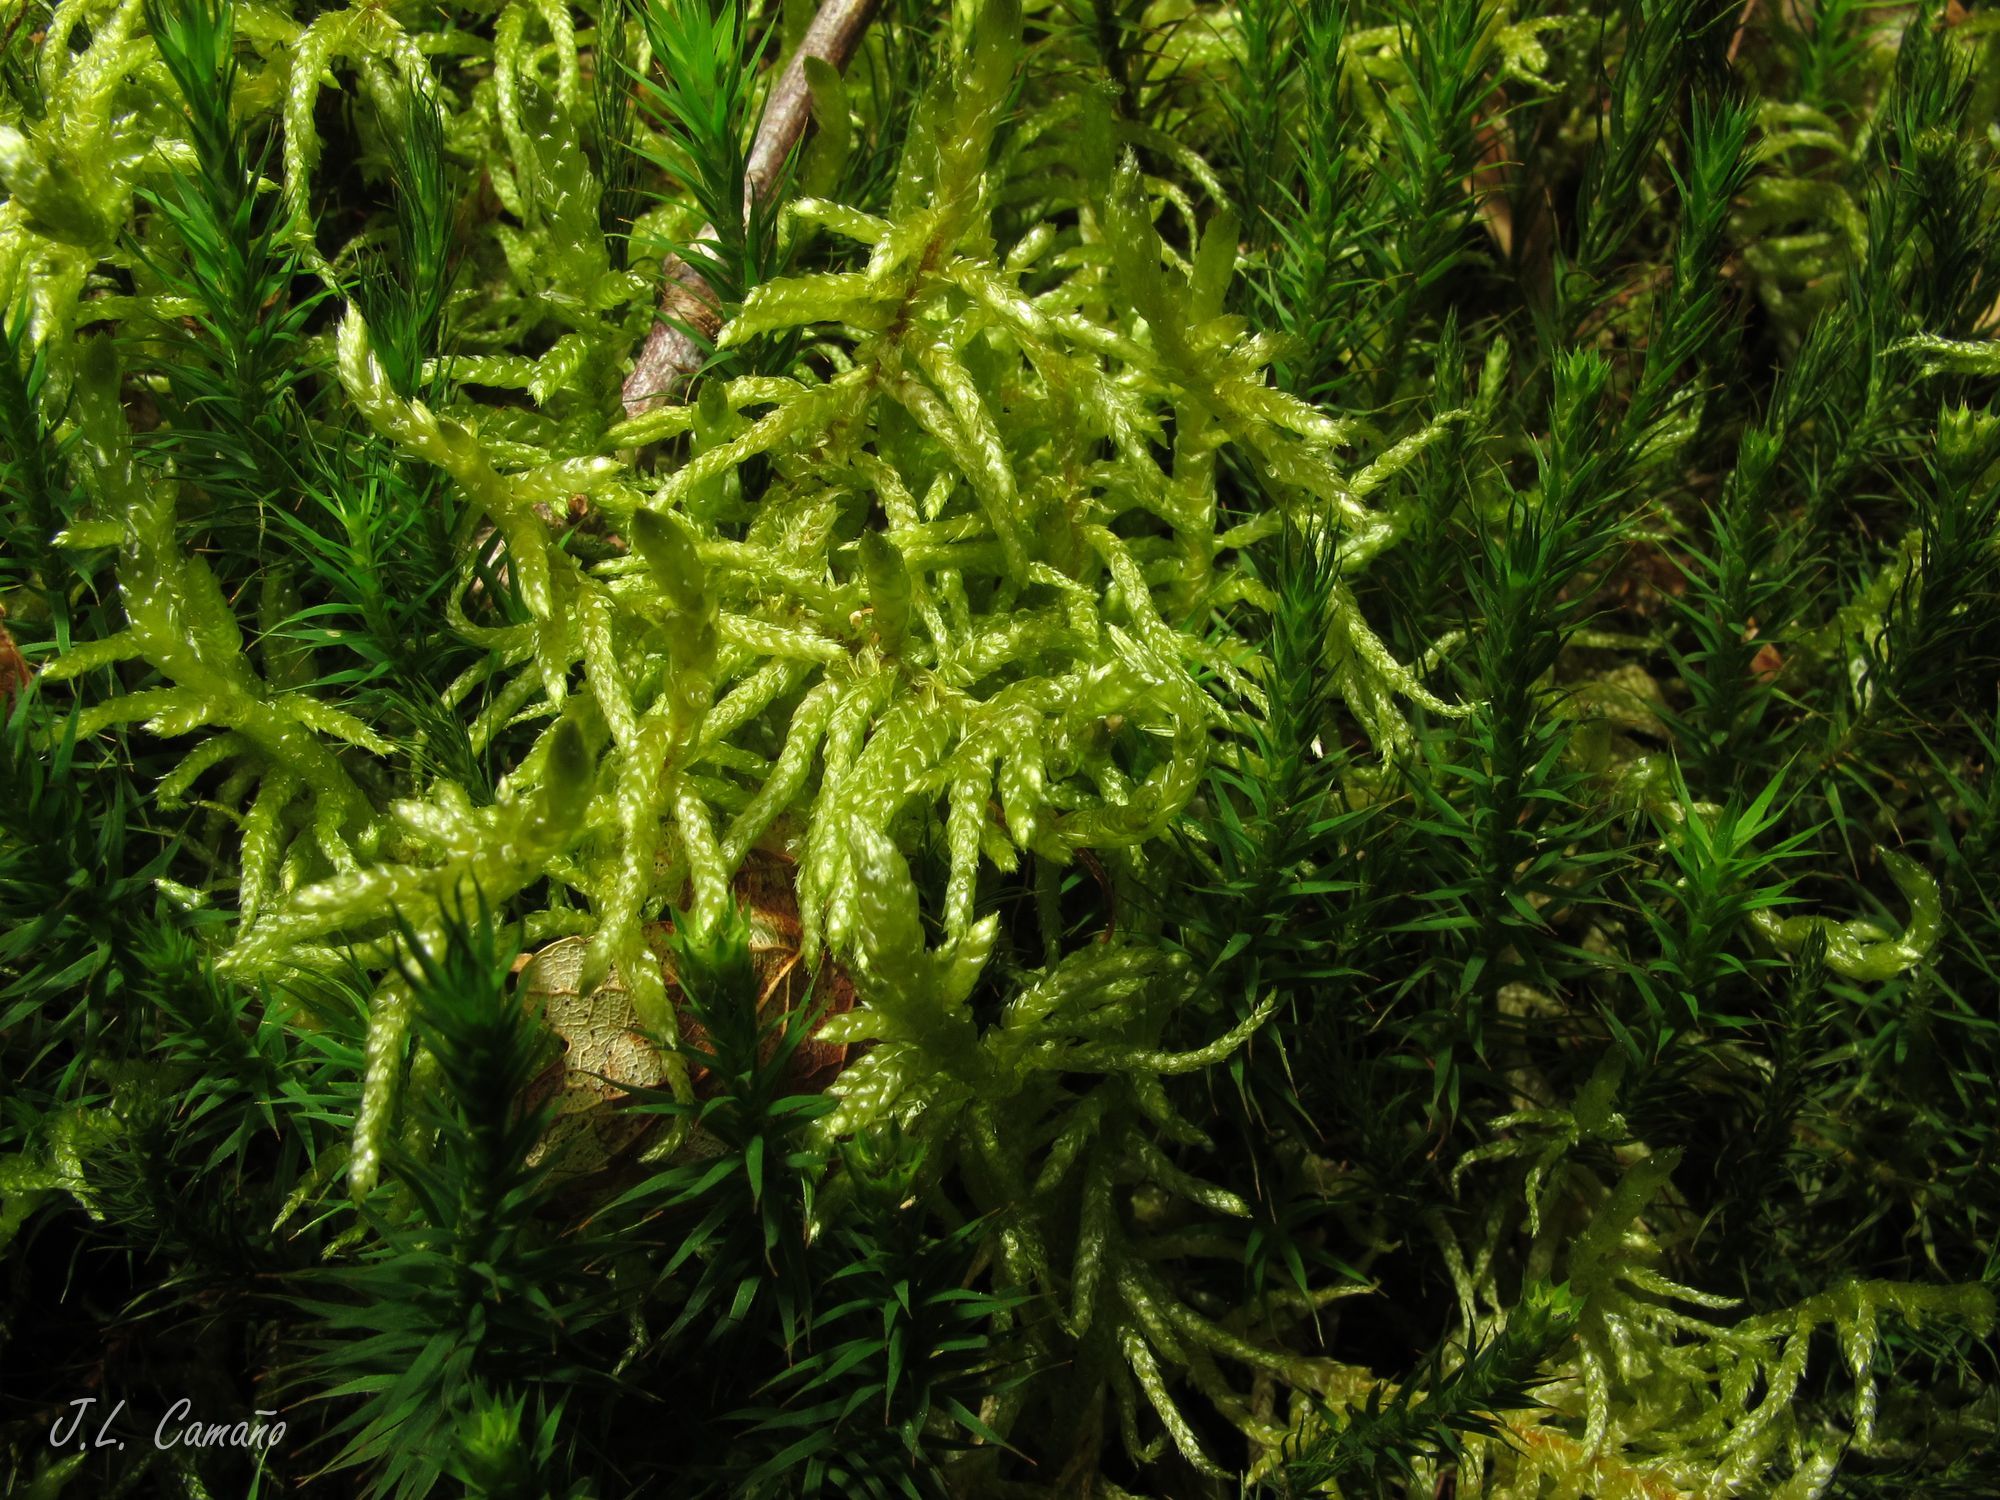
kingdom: Plantae
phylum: Bryophyta
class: Bryopsida
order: Hypnales
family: Brachytheciaceae
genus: Pseudoscleropodium
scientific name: Pseudoscleropodium purum
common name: Neat feather-moss
